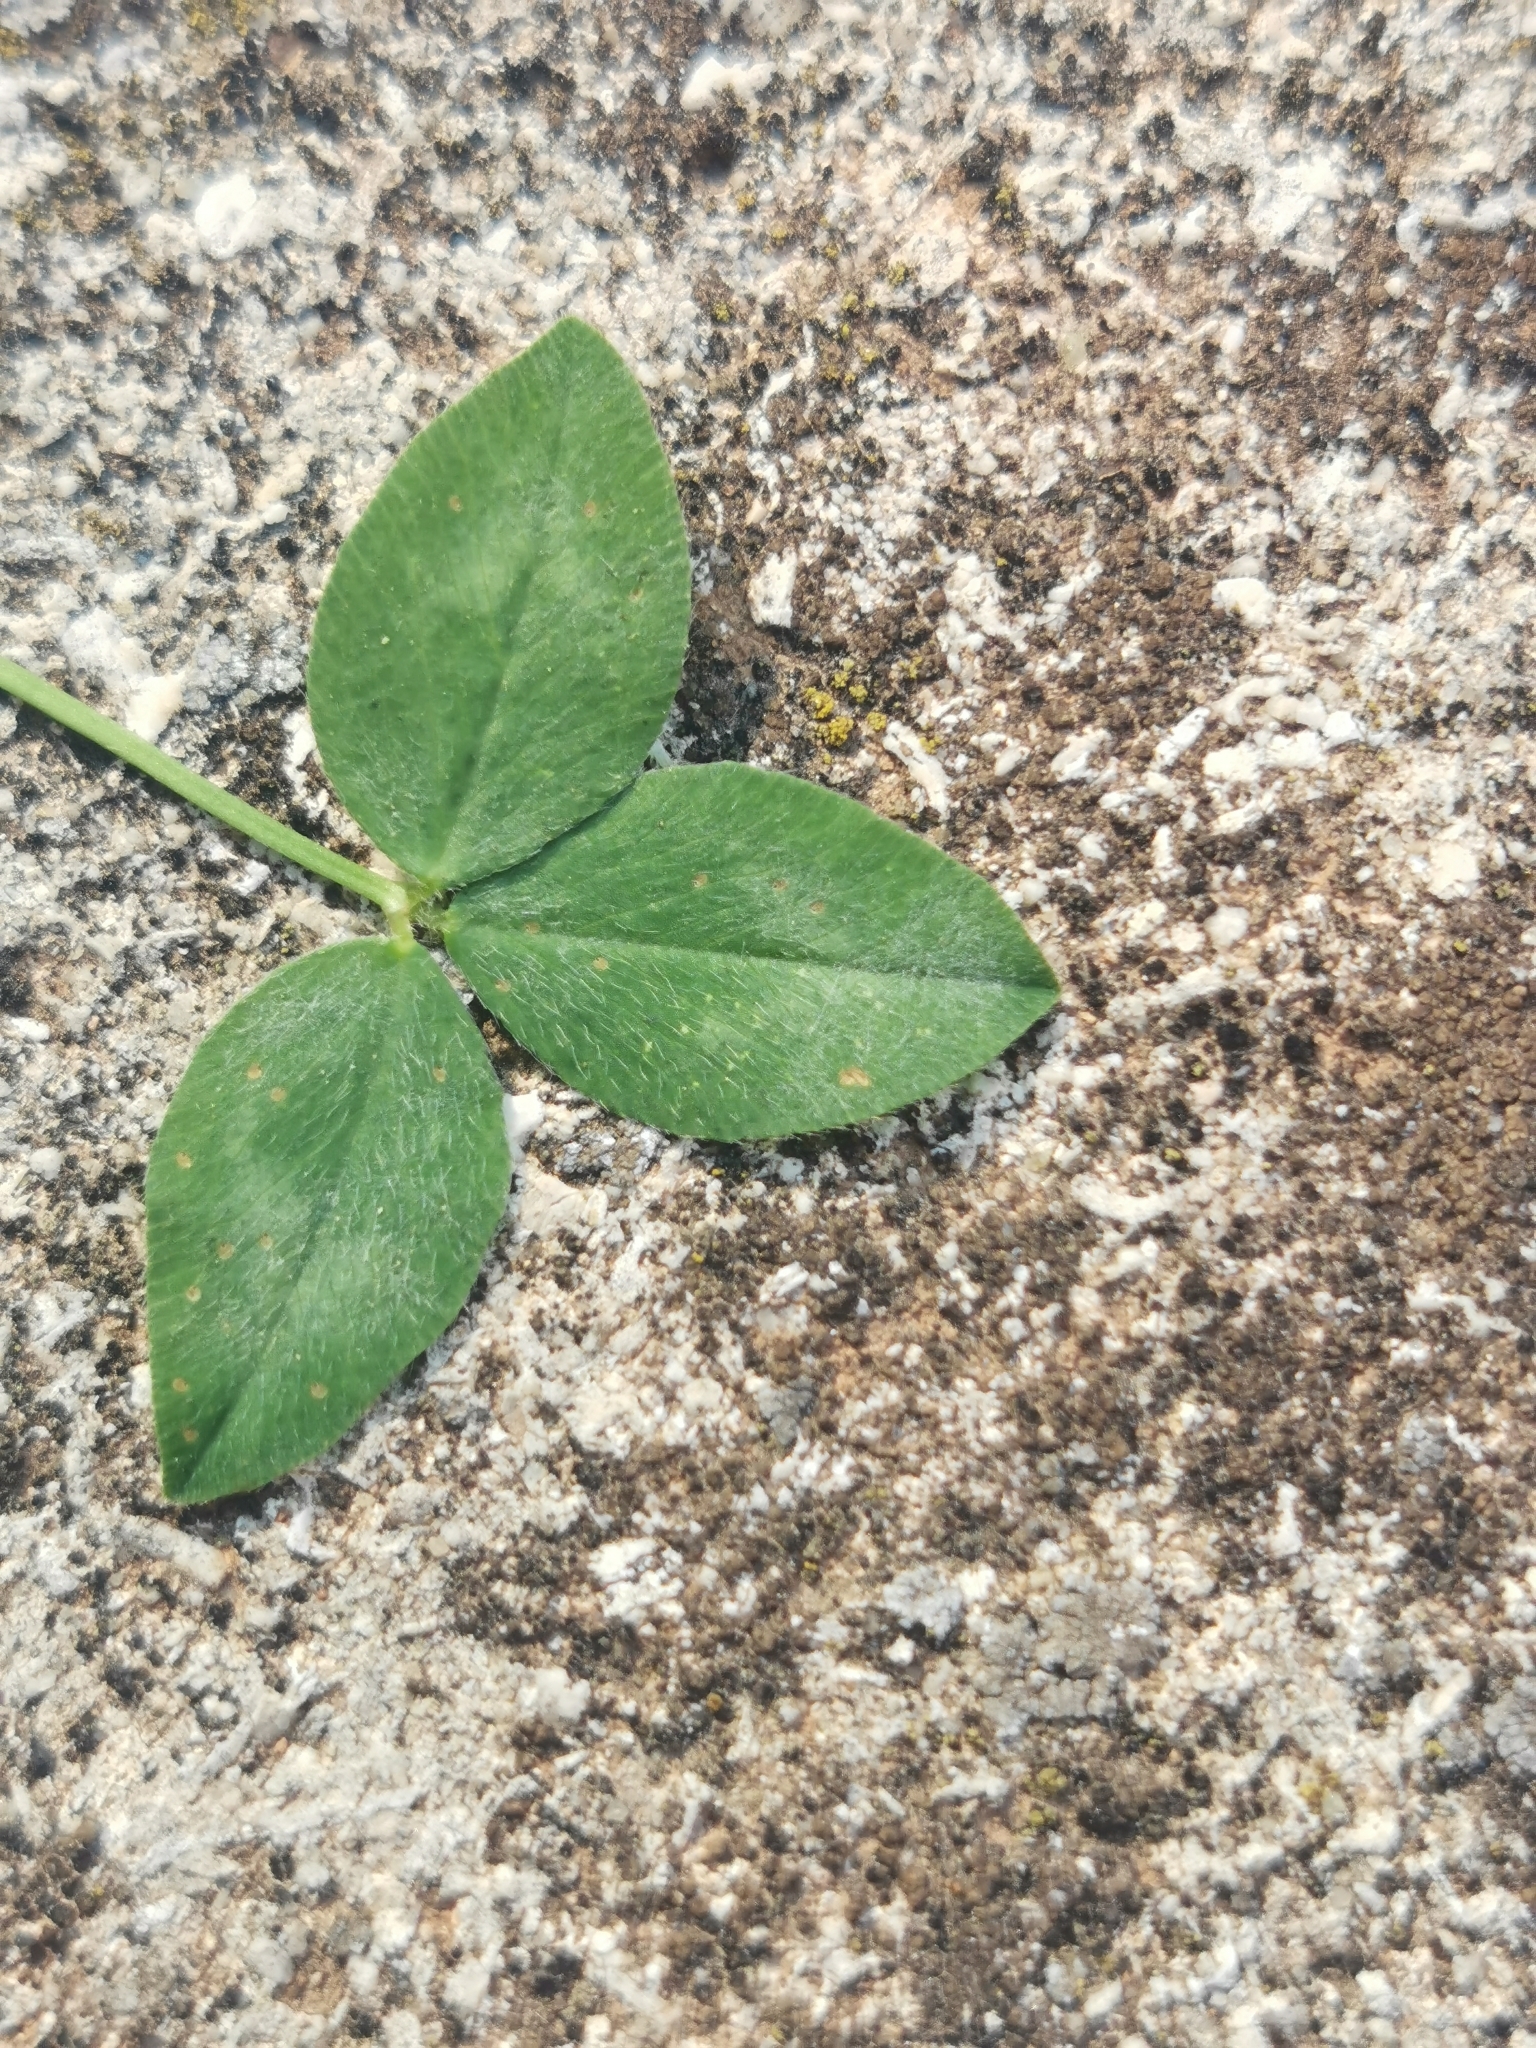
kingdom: Plantae
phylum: Tracheophyta
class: Magnoliopsida
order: Fabales
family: Fabaceae
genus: Trifolium
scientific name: Trifolium pratense
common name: Red clover
